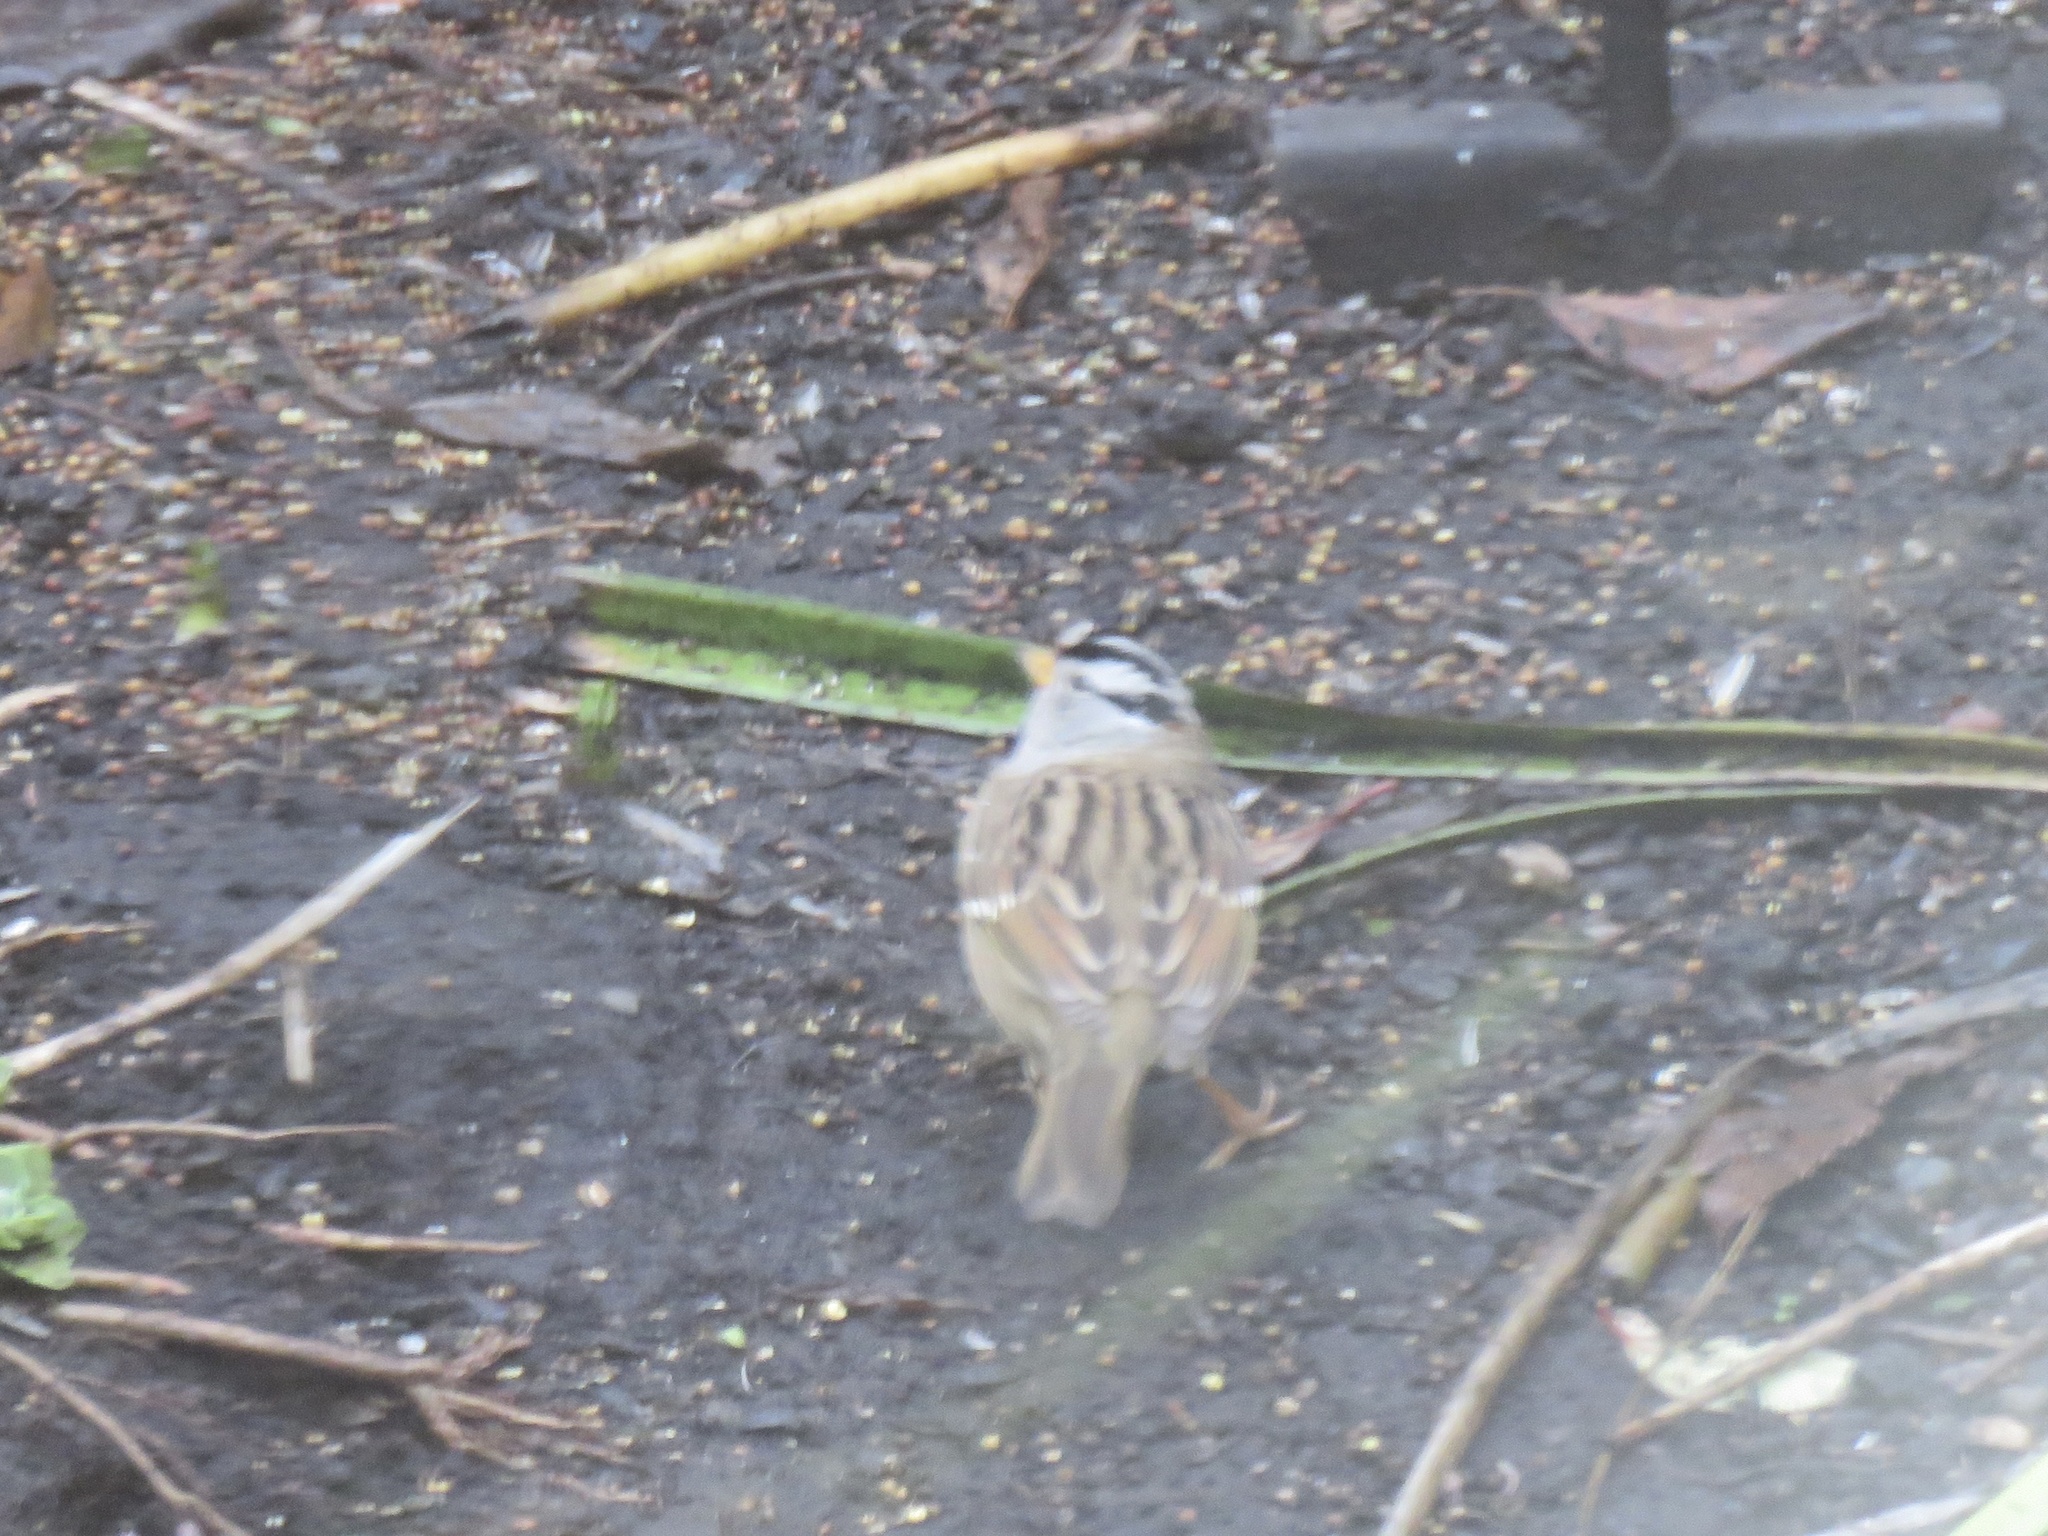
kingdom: Animalia
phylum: Chordata
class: Aves
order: Passeriformes
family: Passerellidae
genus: Zonotrichia
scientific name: Zonotrichia leucophrys
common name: White-crowned sparrow
